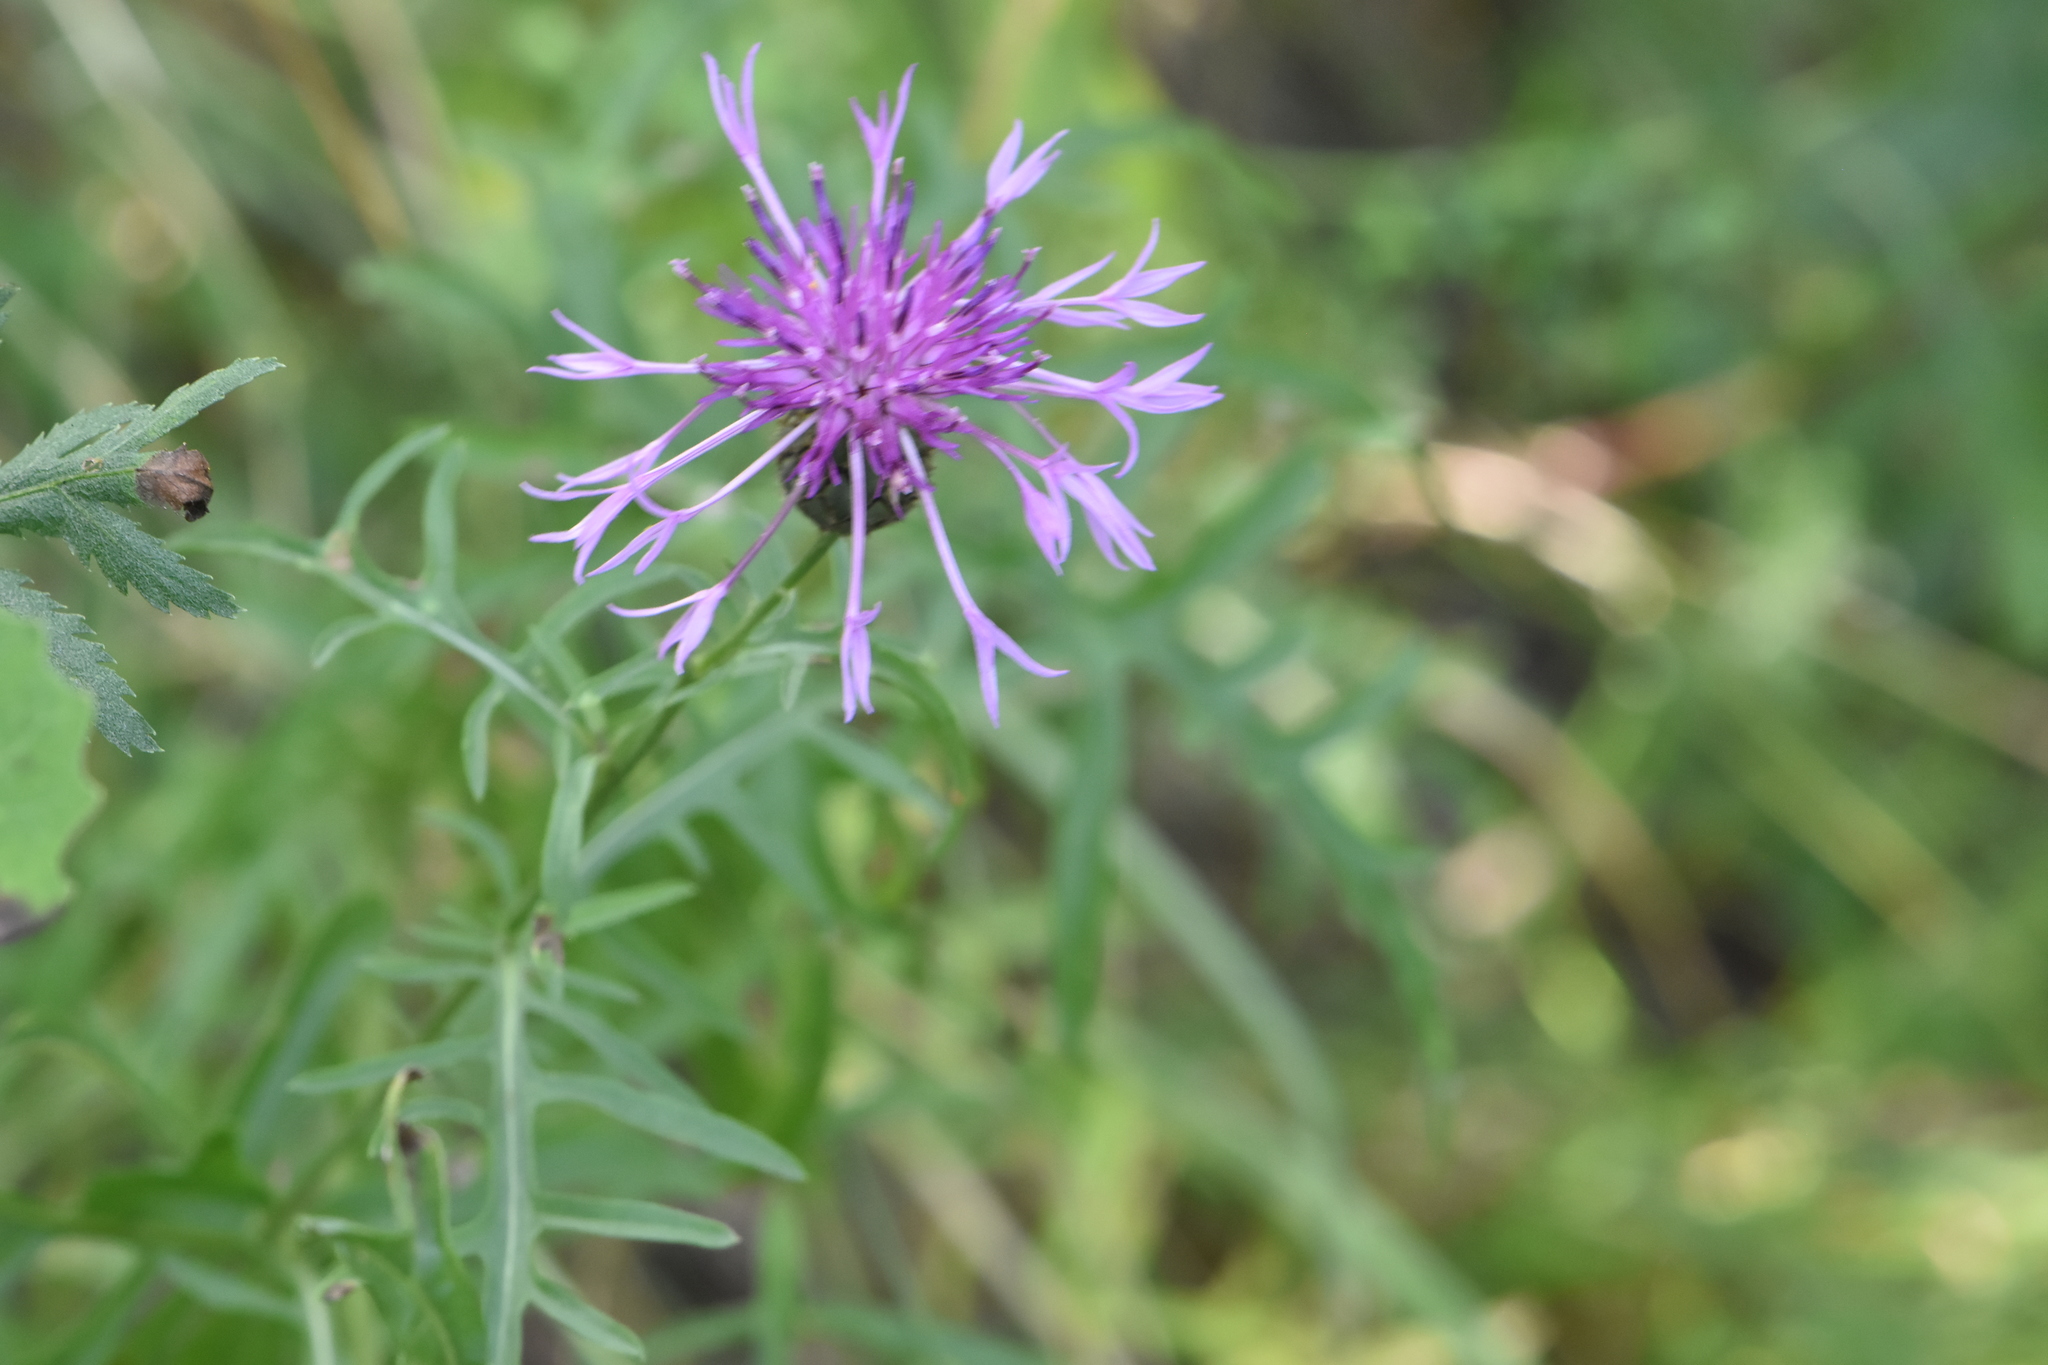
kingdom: Plantae
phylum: Tracheophyta
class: Magnoliopsida
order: Asterales
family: Asteraceae
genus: Centaurea
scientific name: Centaurea scabiosa
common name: Greater knapweed
